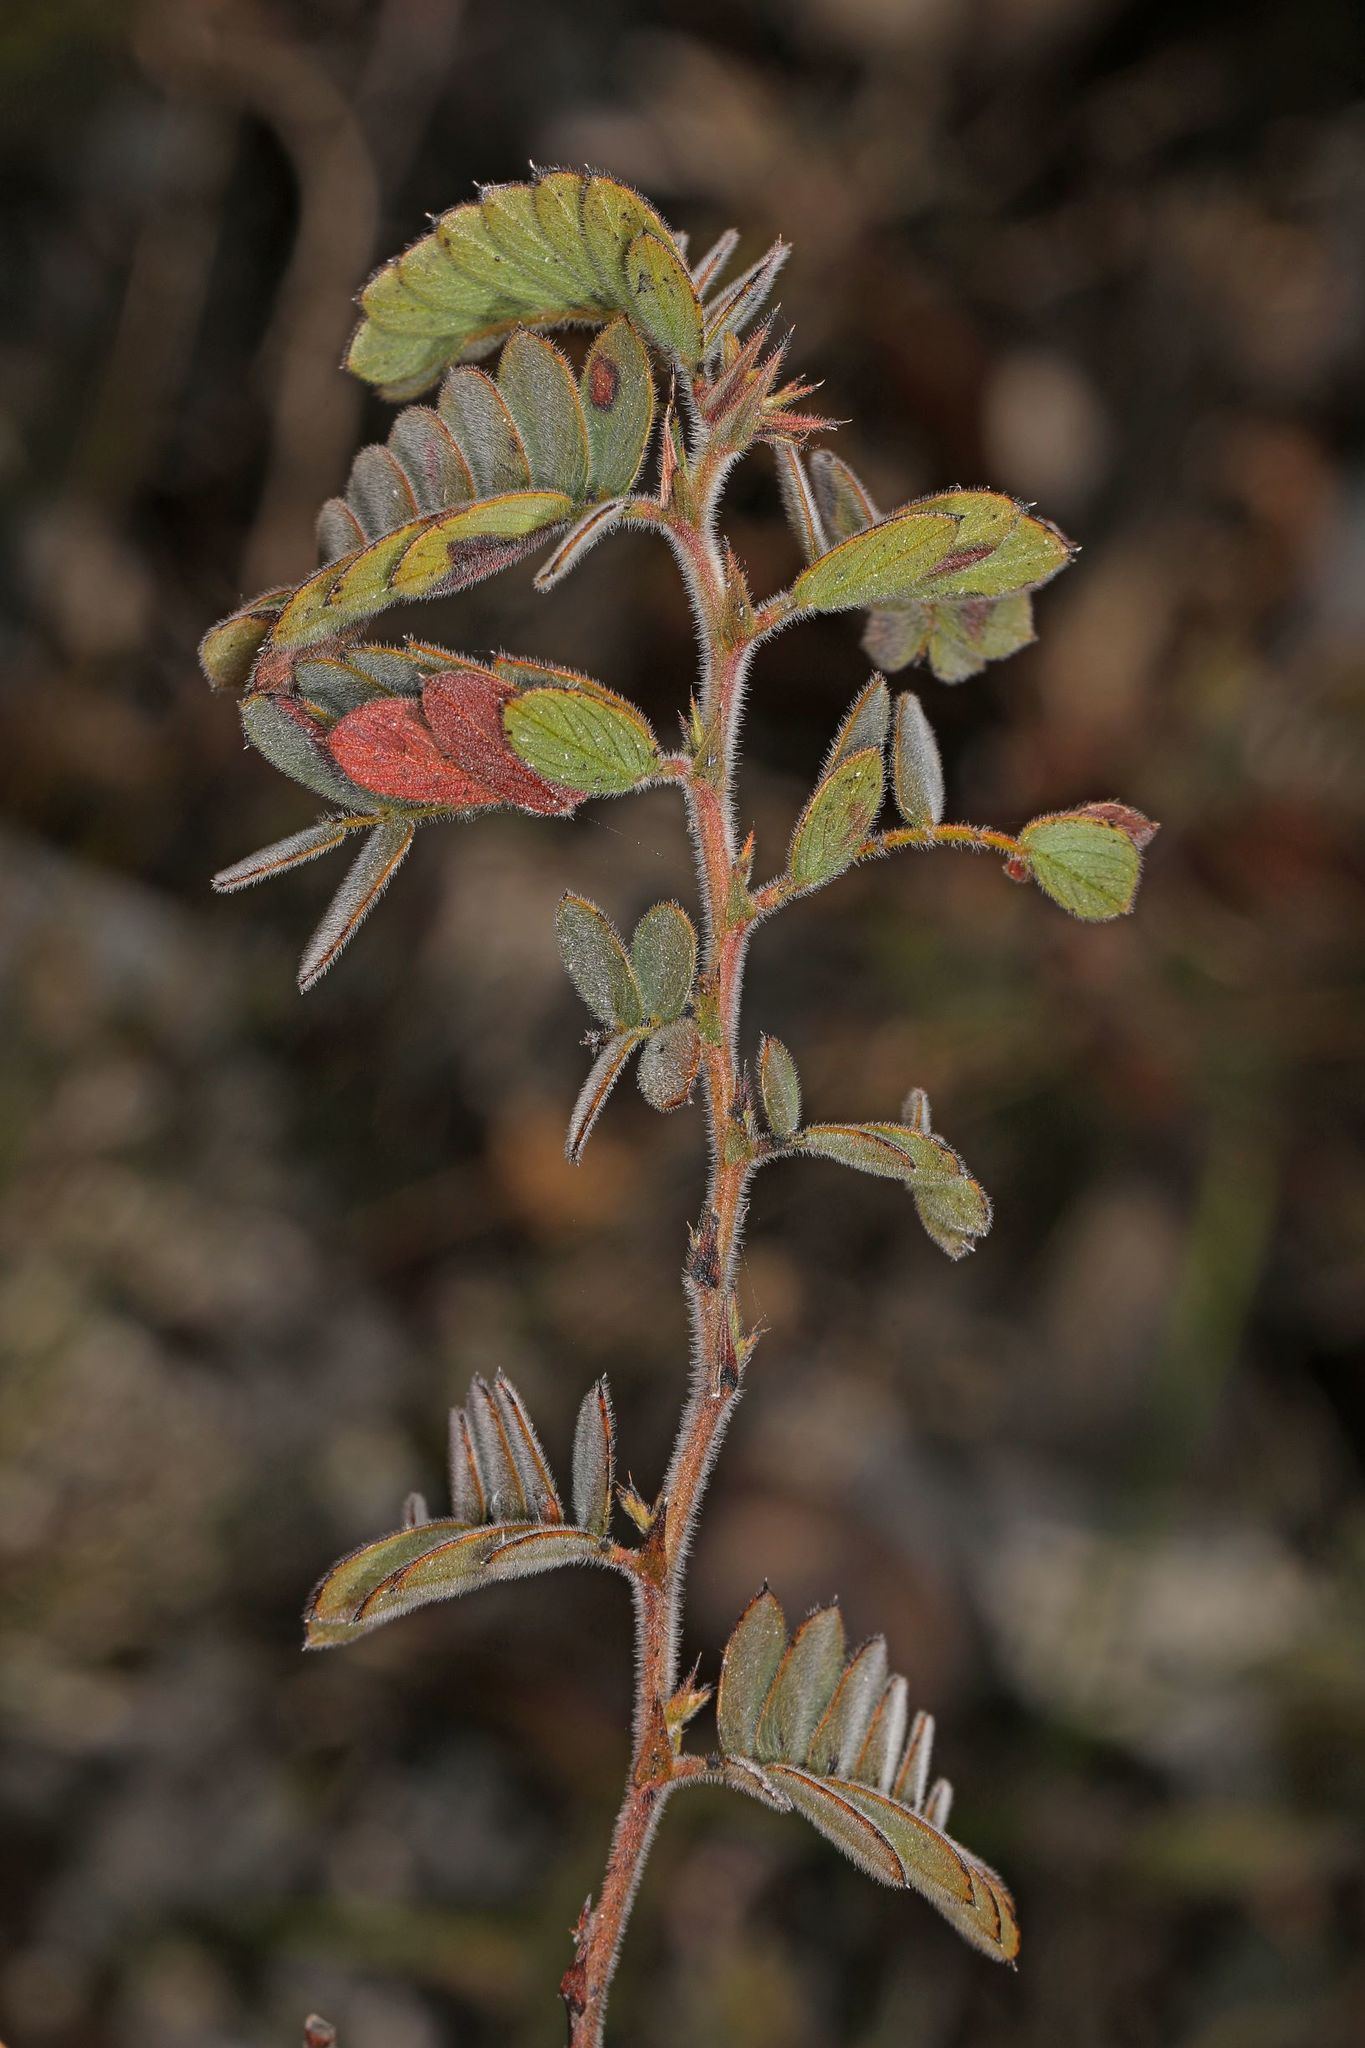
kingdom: Plantae
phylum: Tracheophyta
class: Magnoliopsida
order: Fabales
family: Fabaceae
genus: Chamaecrista
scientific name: Chamaecrista lineata
